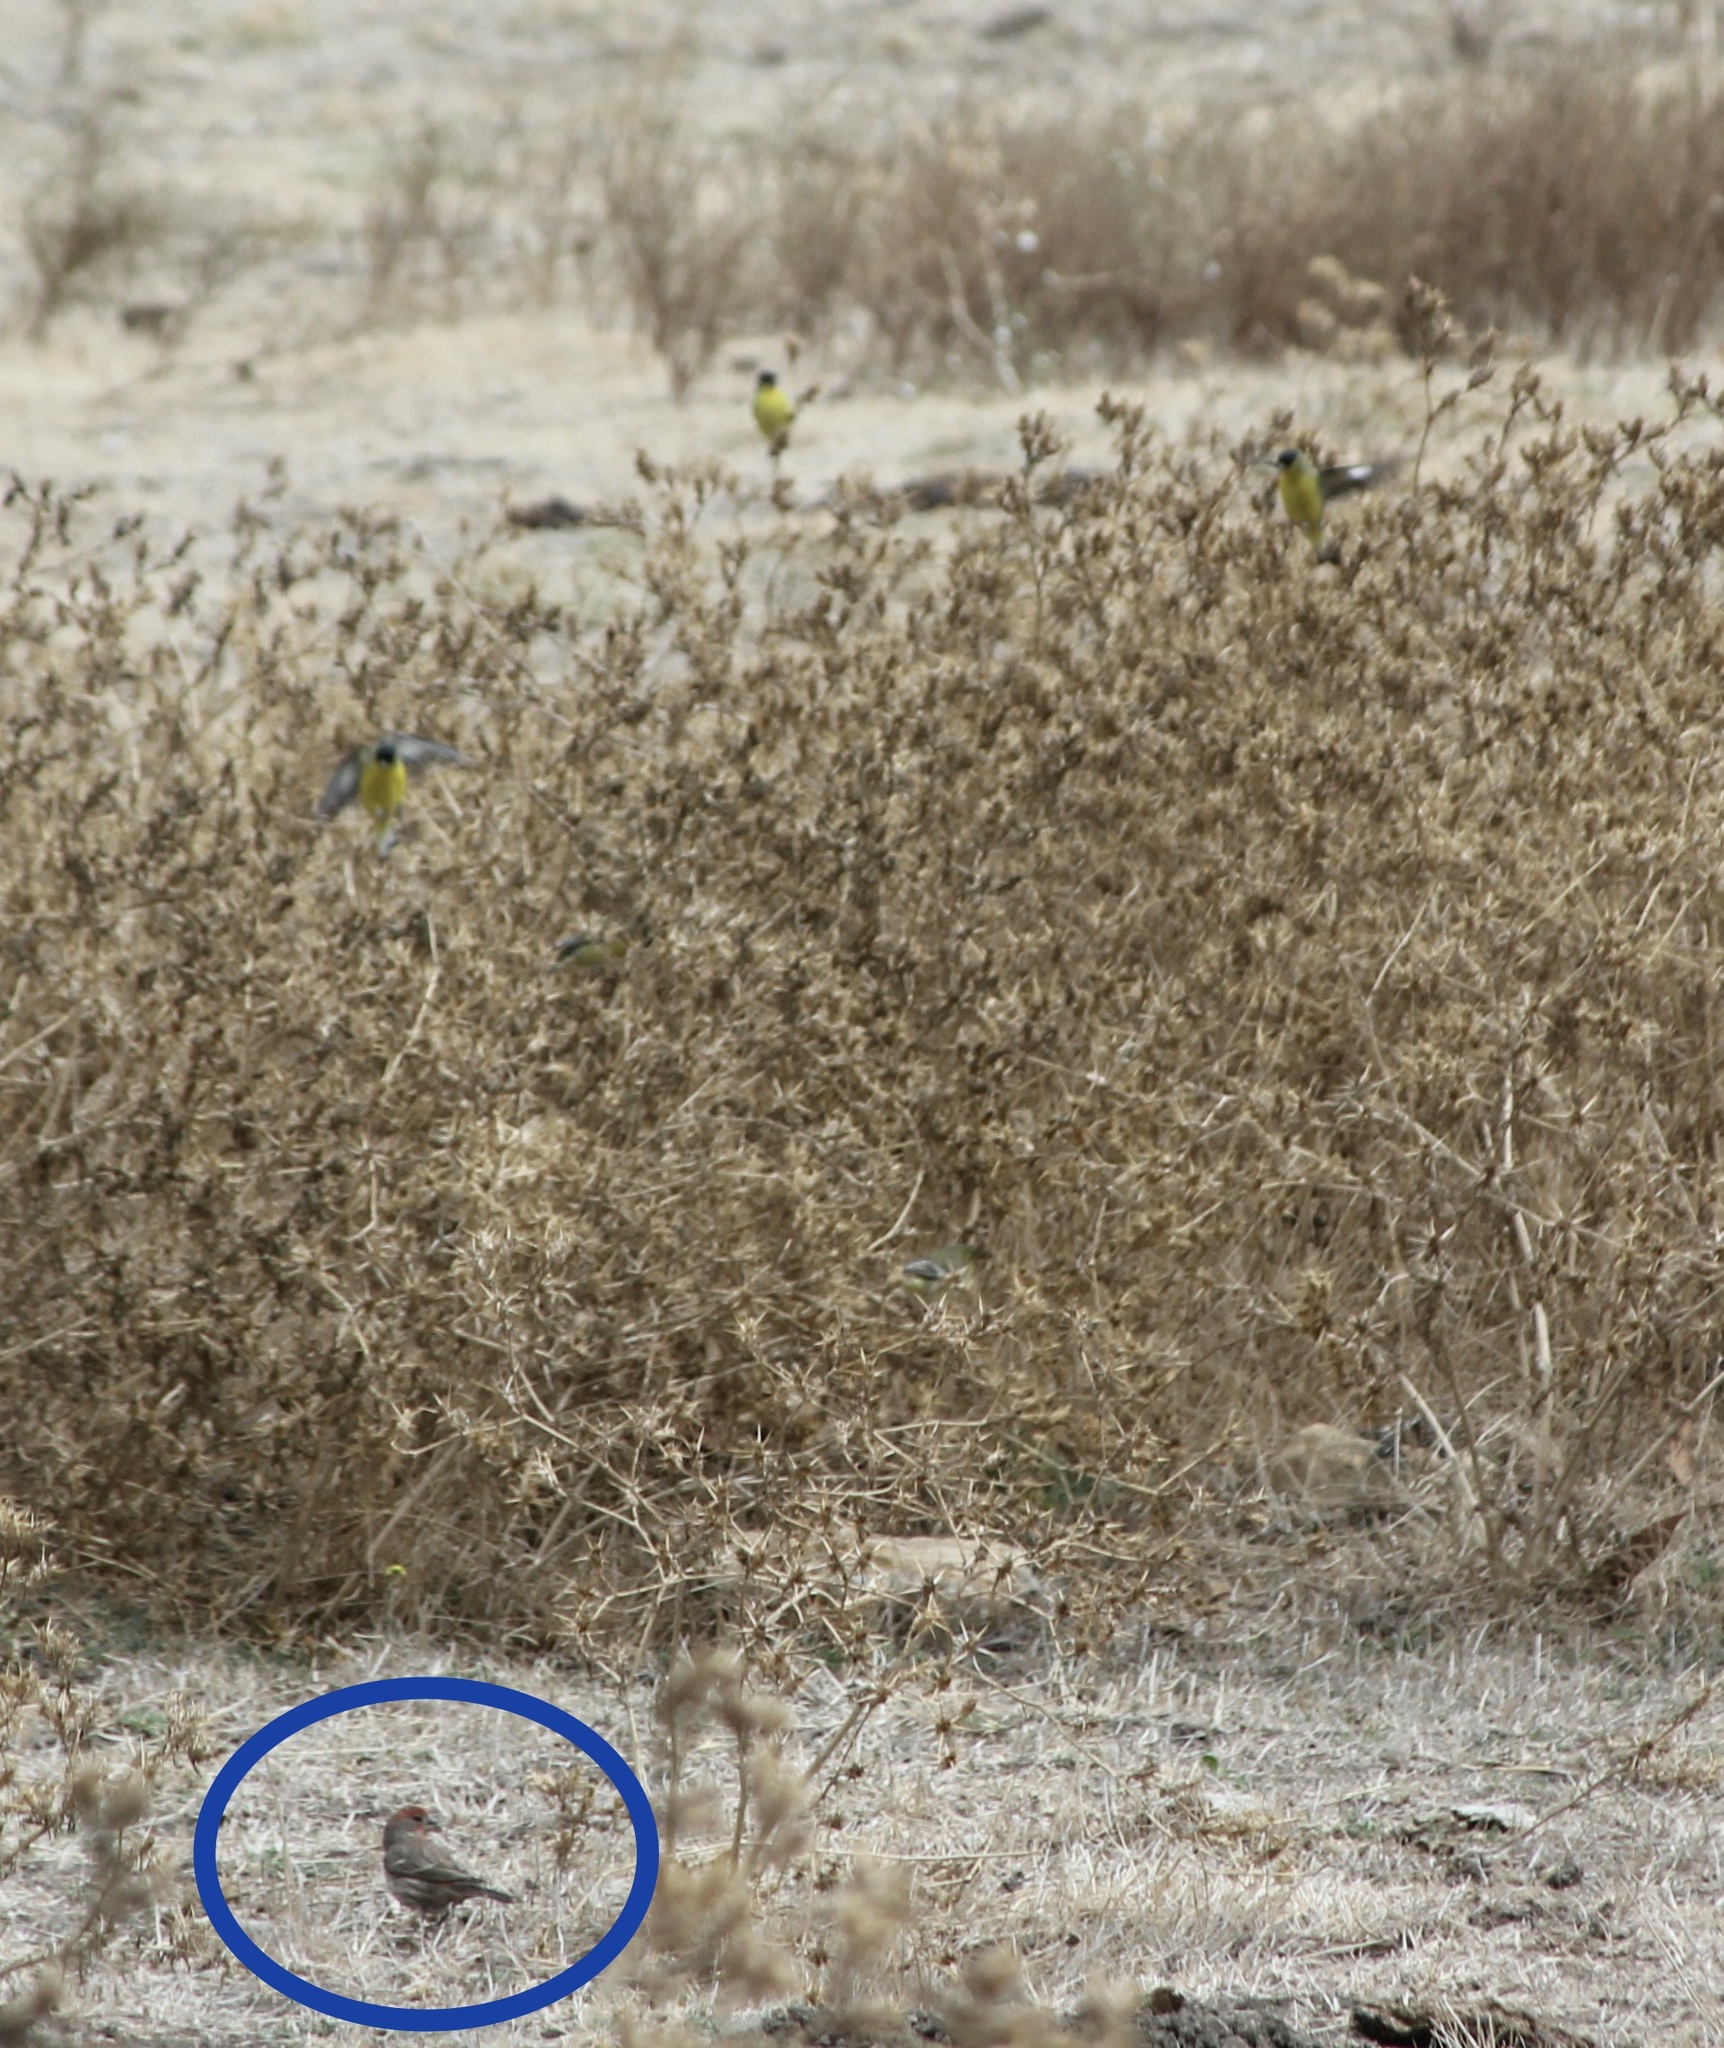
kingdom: Animalia
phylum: Chordata
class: Aves
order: Passeriformes
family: Fringillidae
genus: Haemorhous
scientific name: Haemorhous mexicanus
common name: House finch
